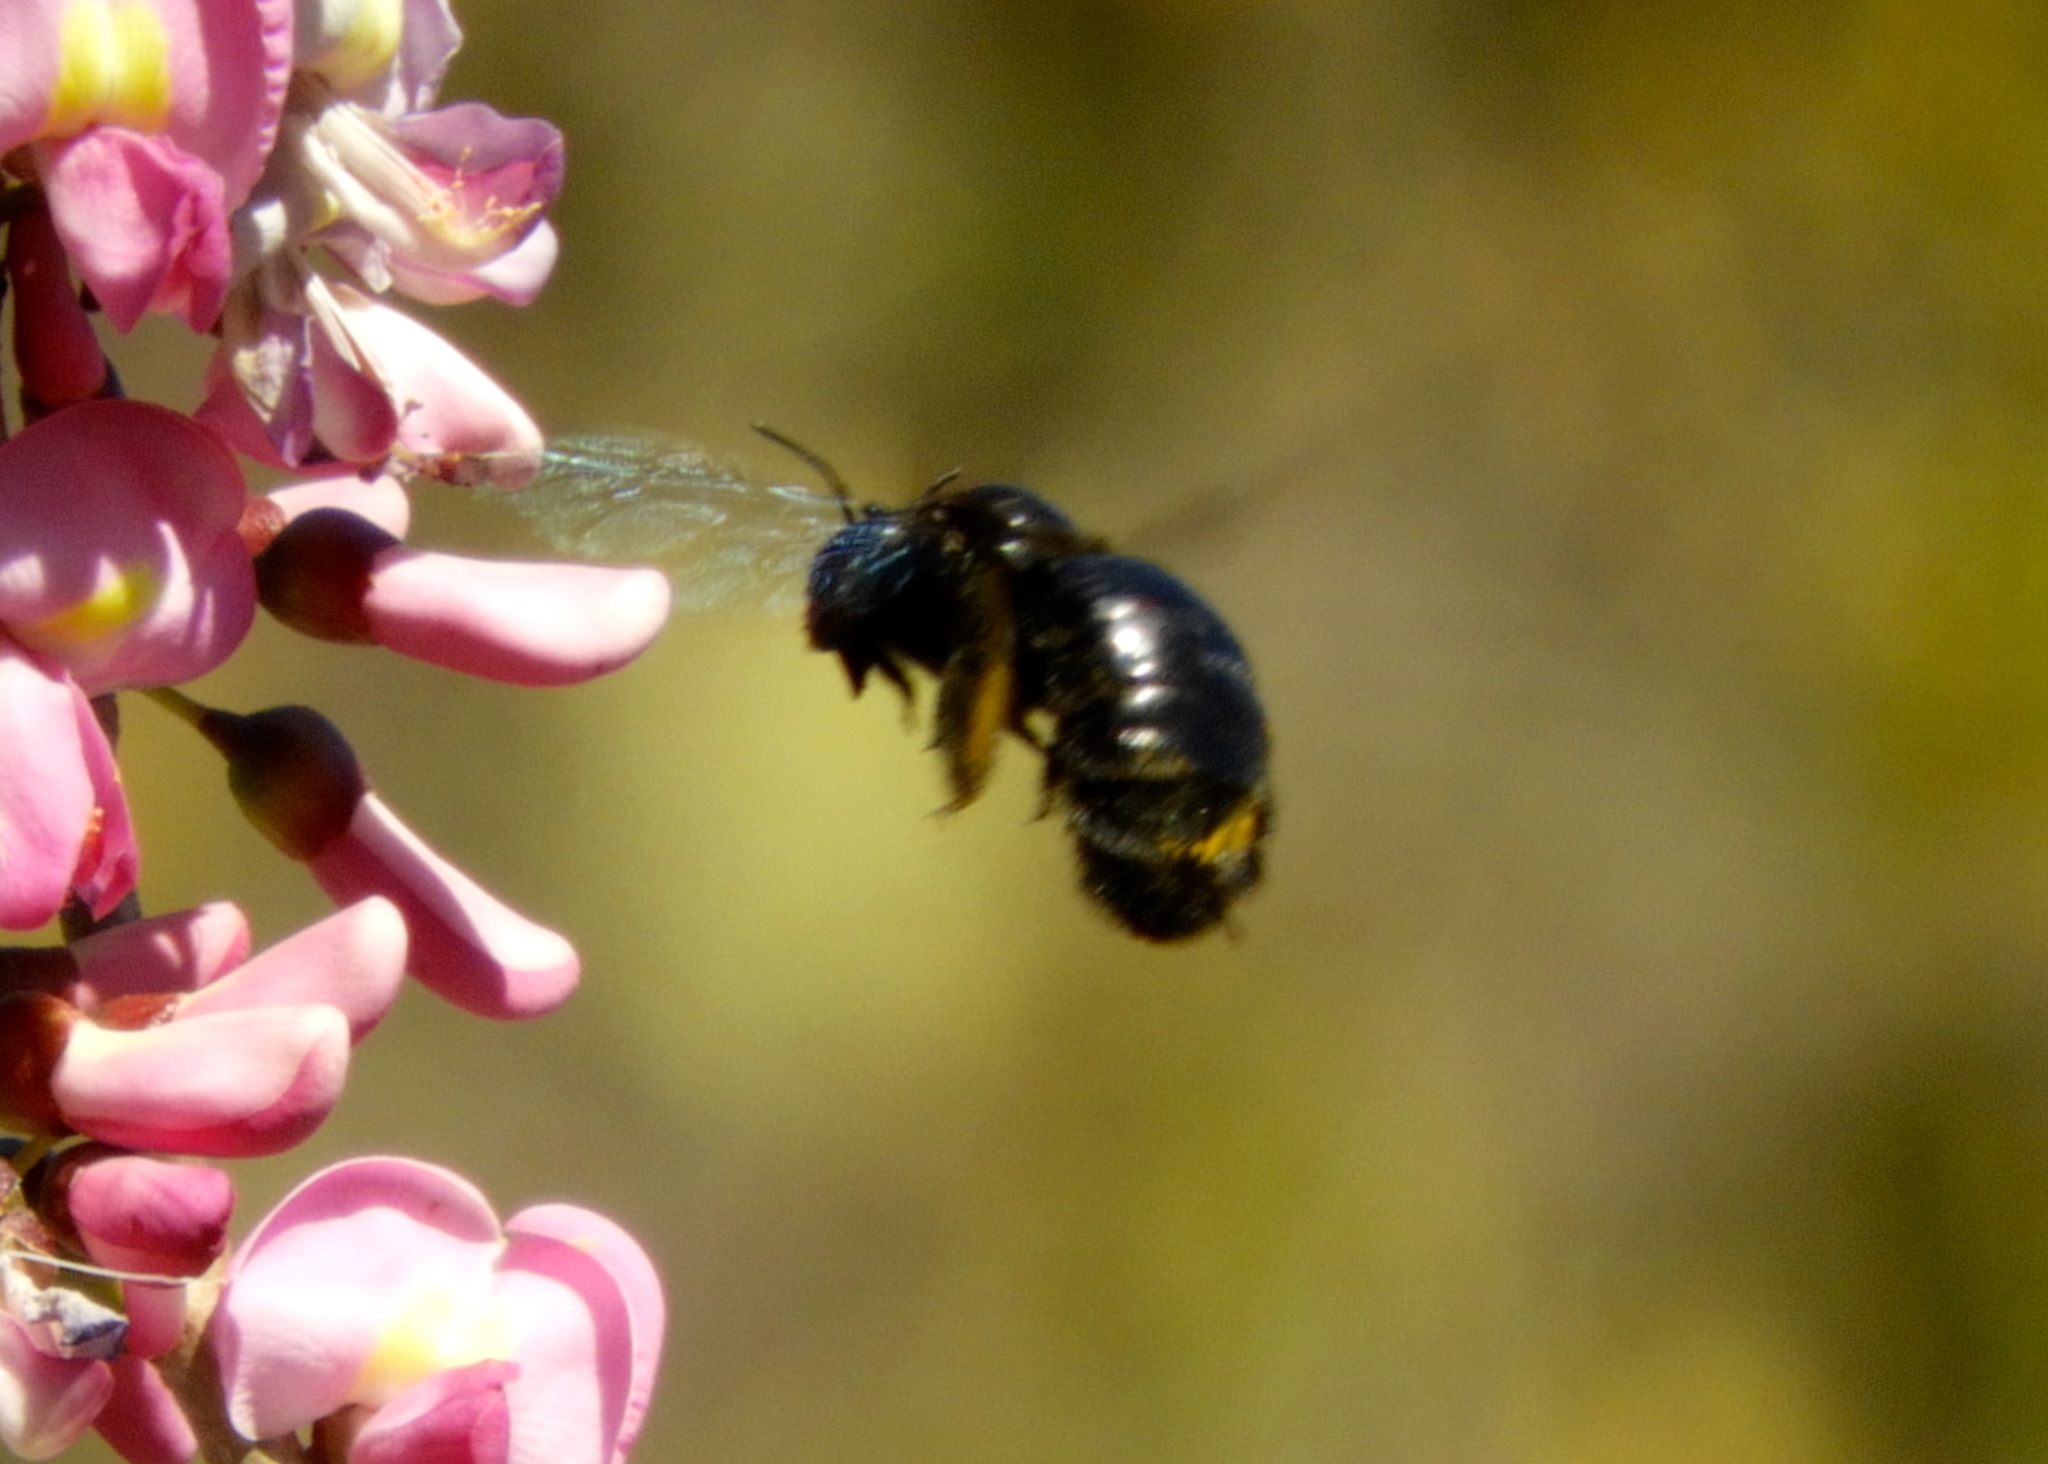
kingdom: Animalia
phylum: Arthropoda
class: Insecta
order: Hymenoptera
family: Apidae
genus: Xylocopa
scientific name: Xylocopa fimbriata
